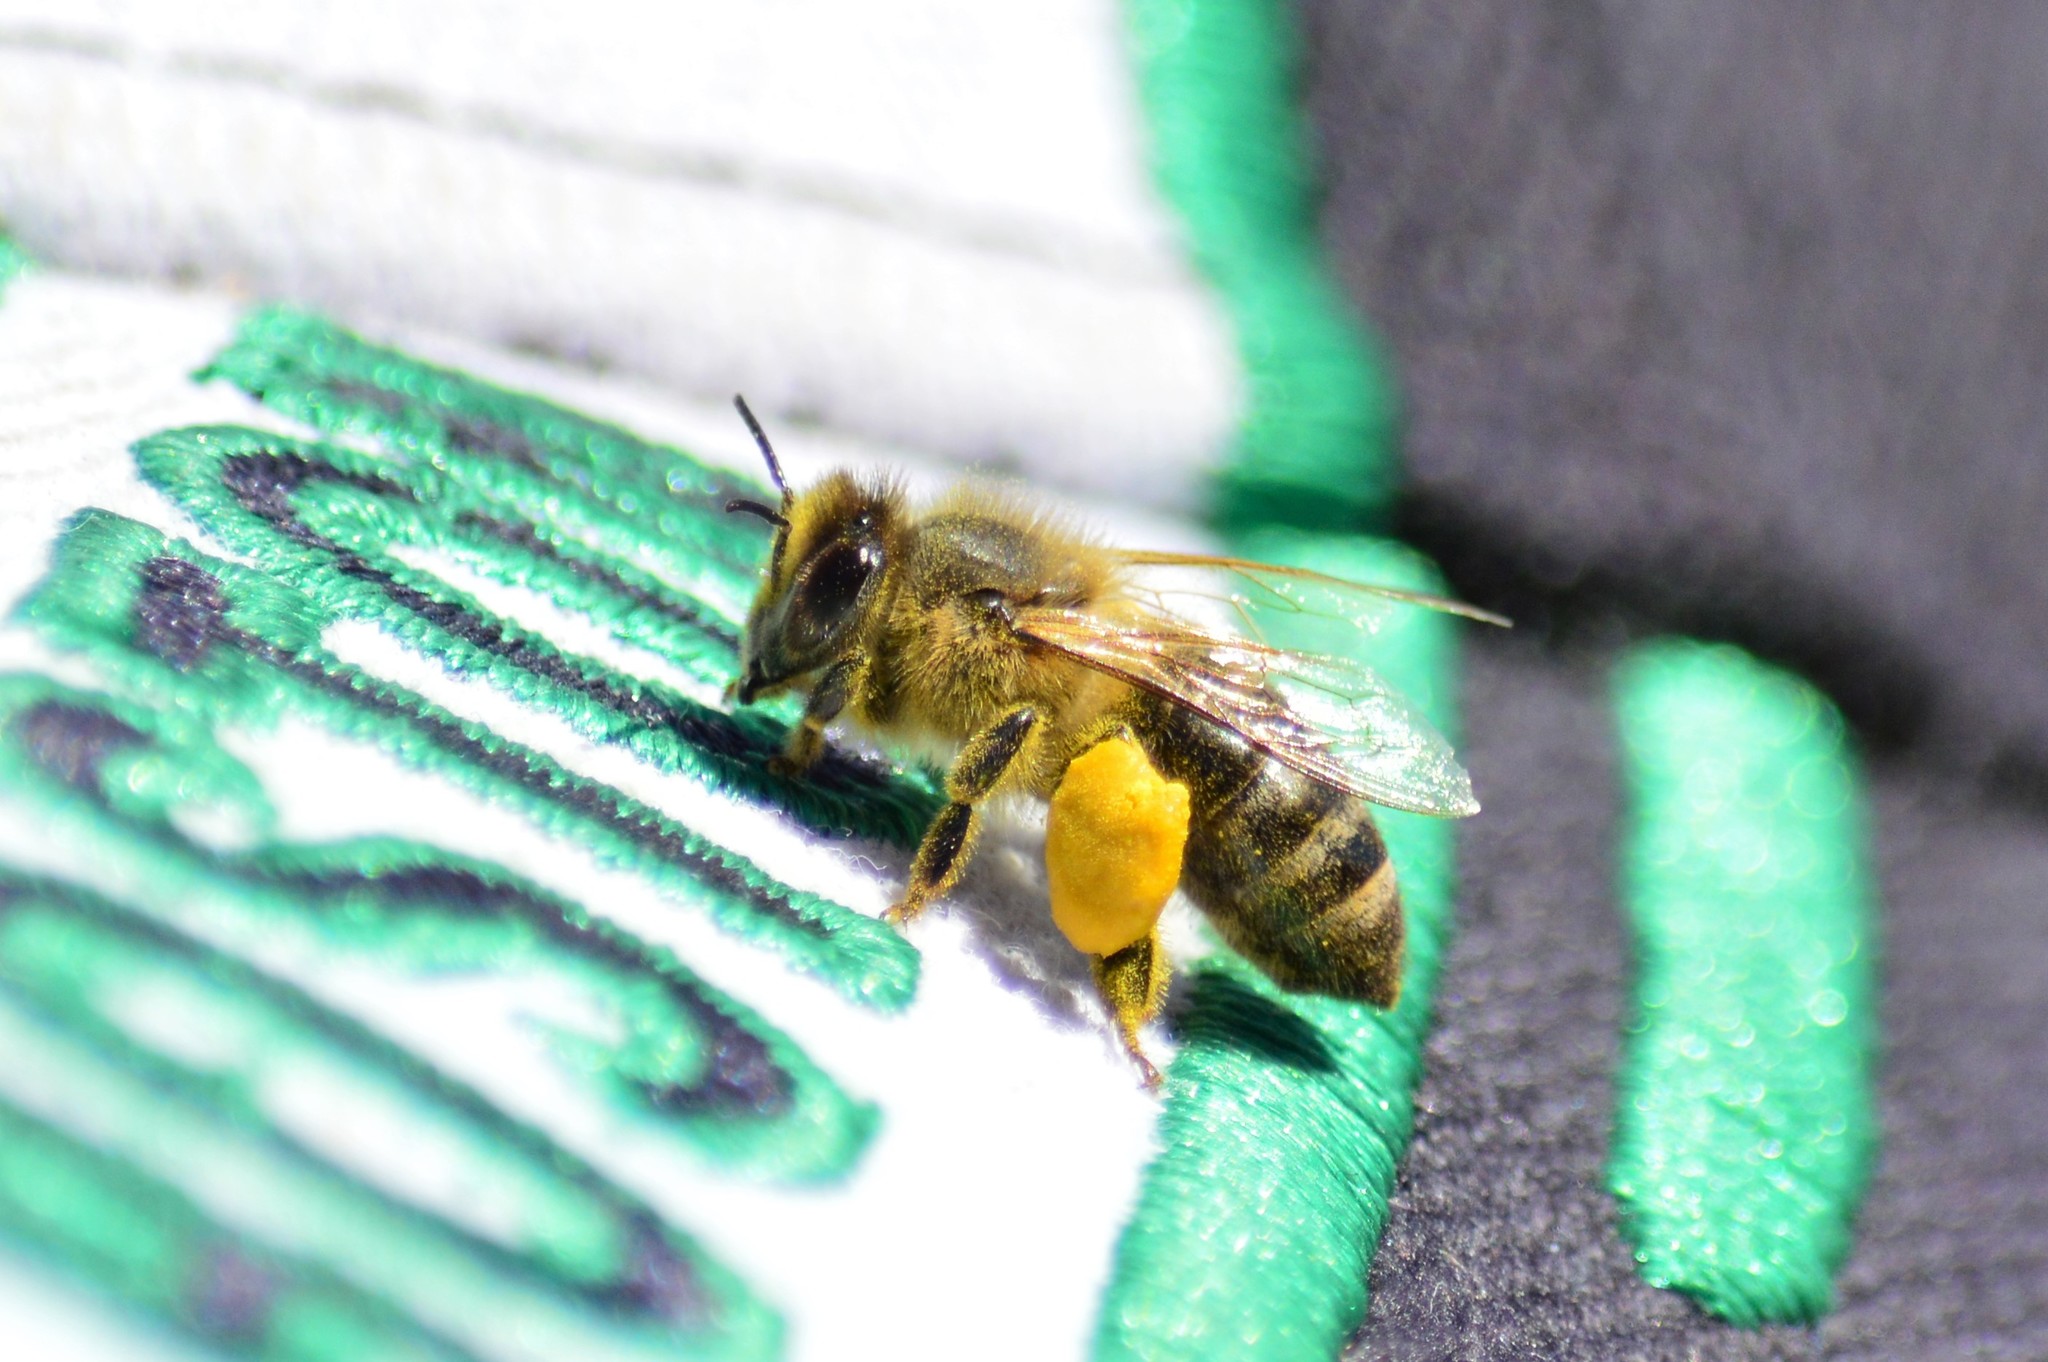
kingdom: Animalia
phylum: Arthropoda
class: Insecta
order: Hymenoptera
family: Apidae
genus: Apis
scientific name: Apis mellifera
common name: Honey bee
